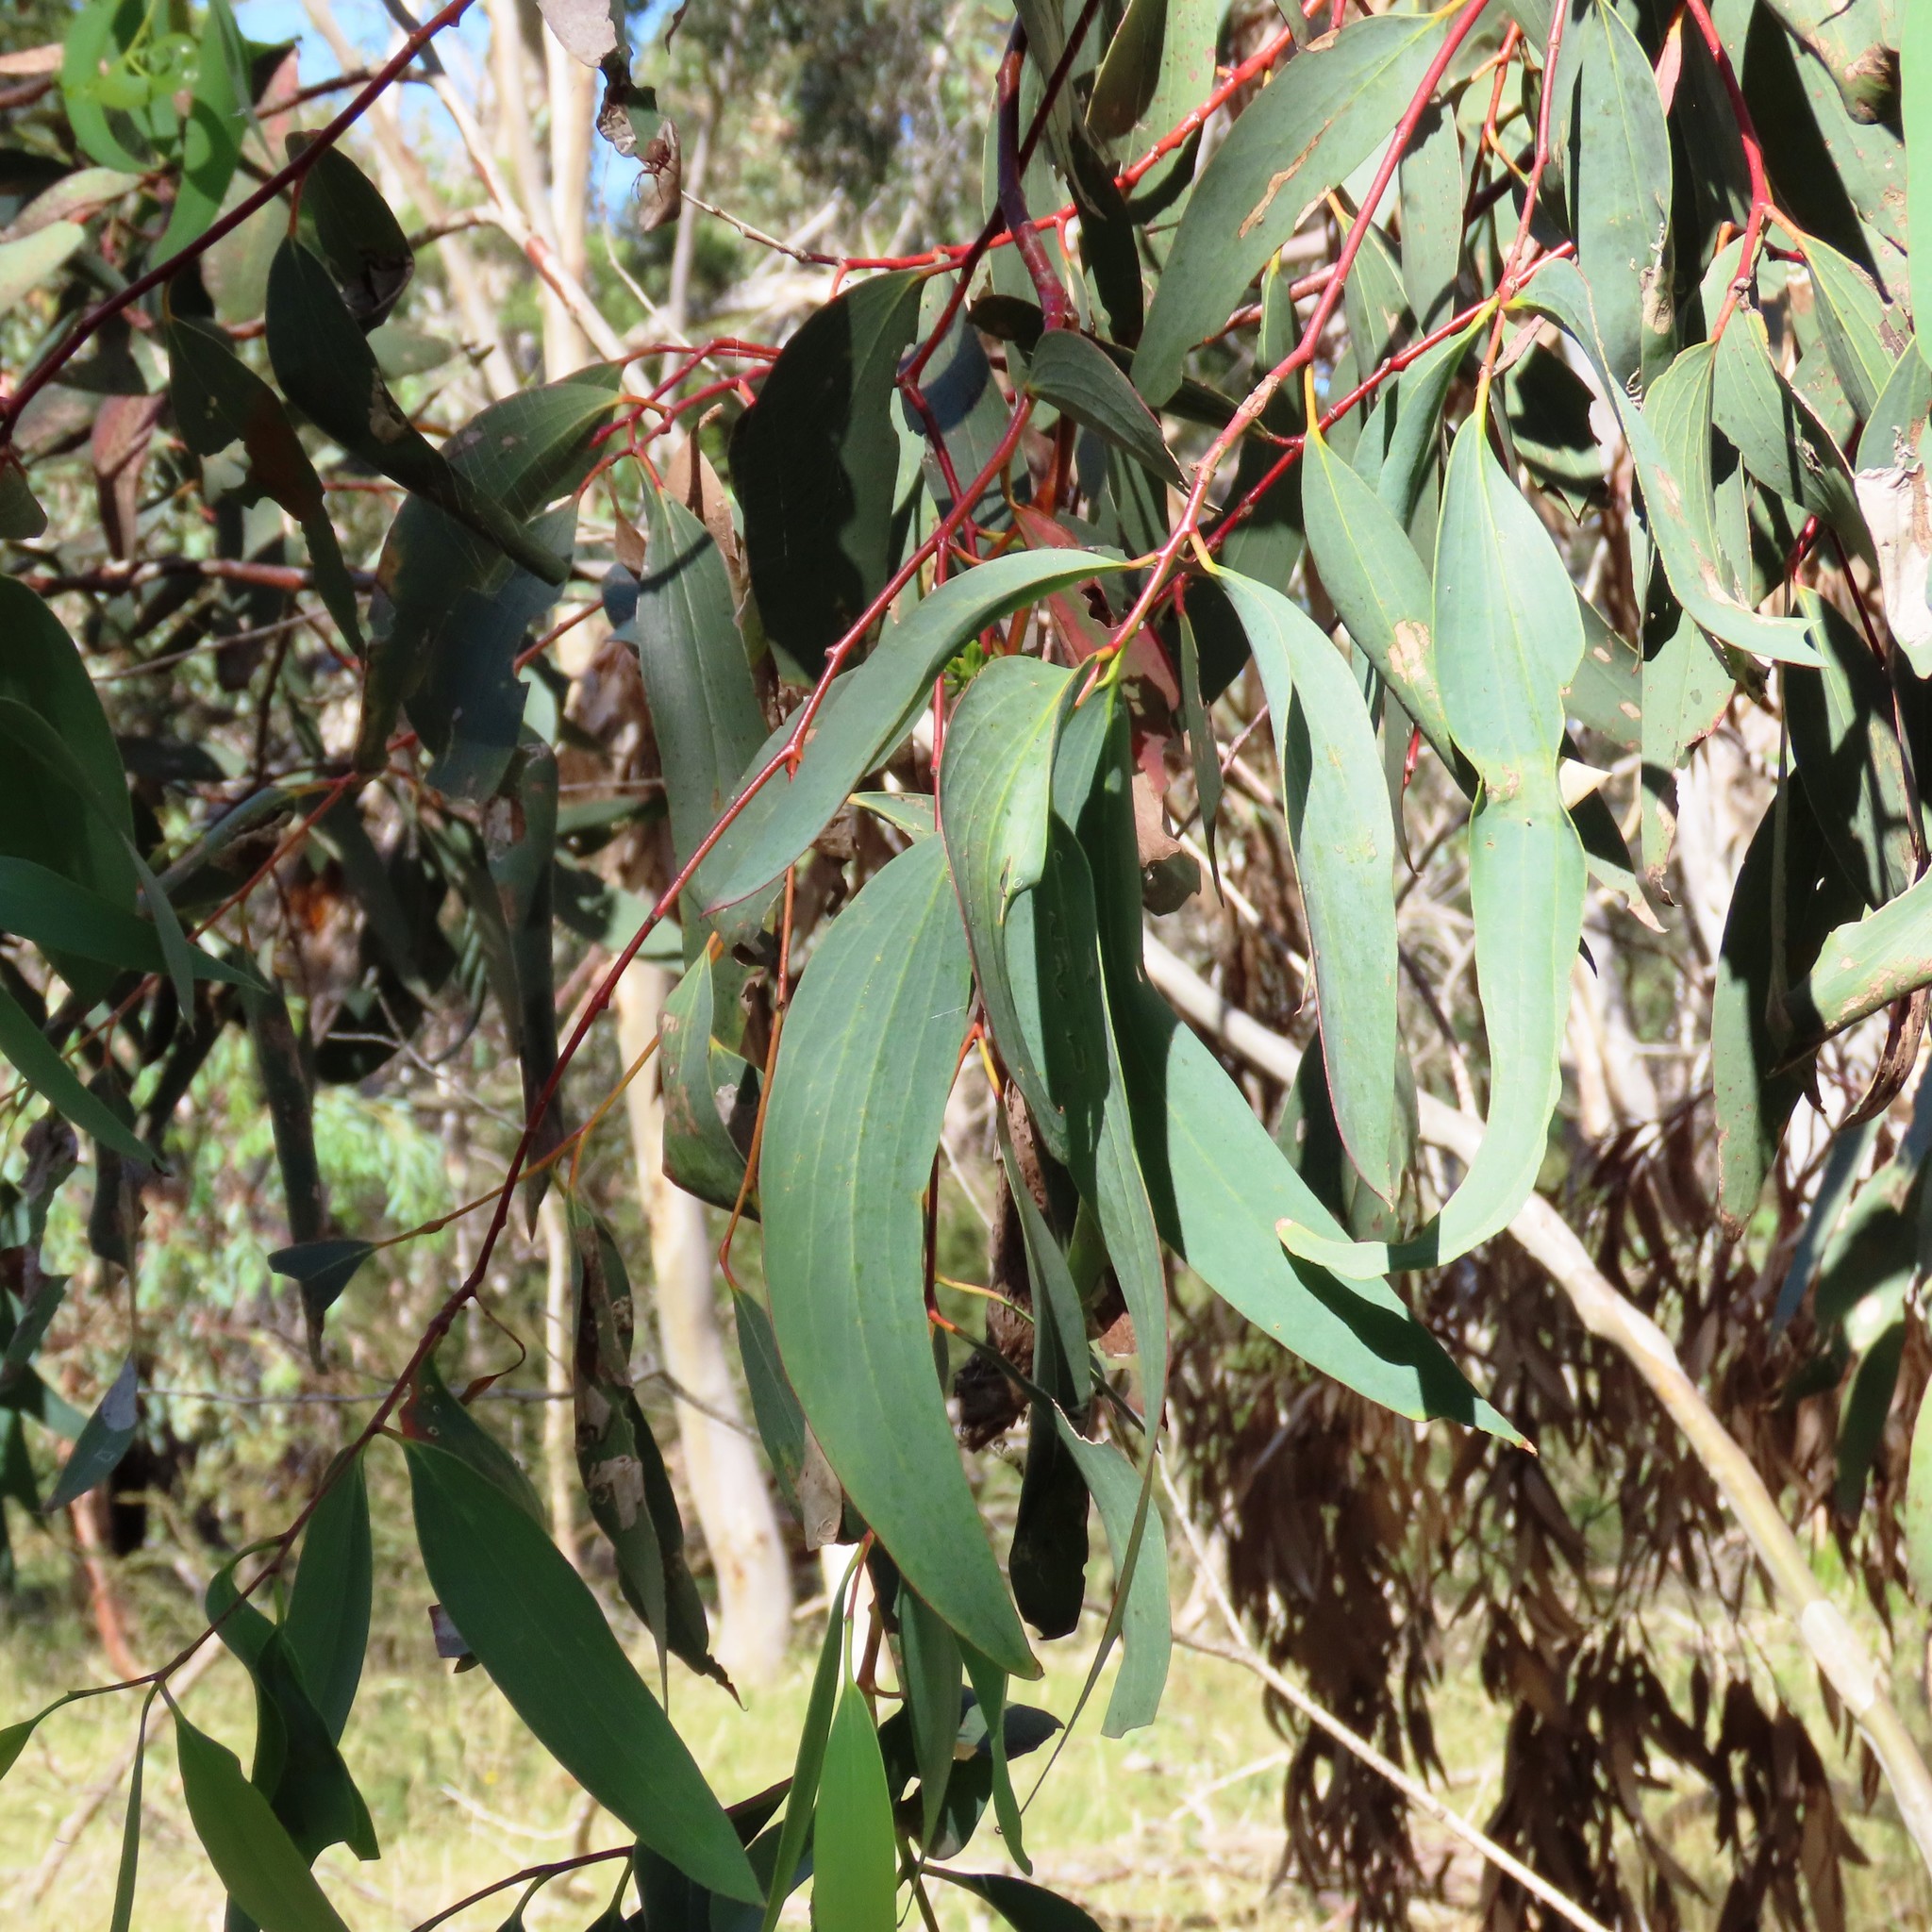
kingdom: Plantae
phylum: Tracheophyta
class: Magnoliopsida
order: Myrtales
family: Myrtaceae
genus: Eucalyptus
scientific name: Eucalyptus pauciflora
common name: Snow gum
